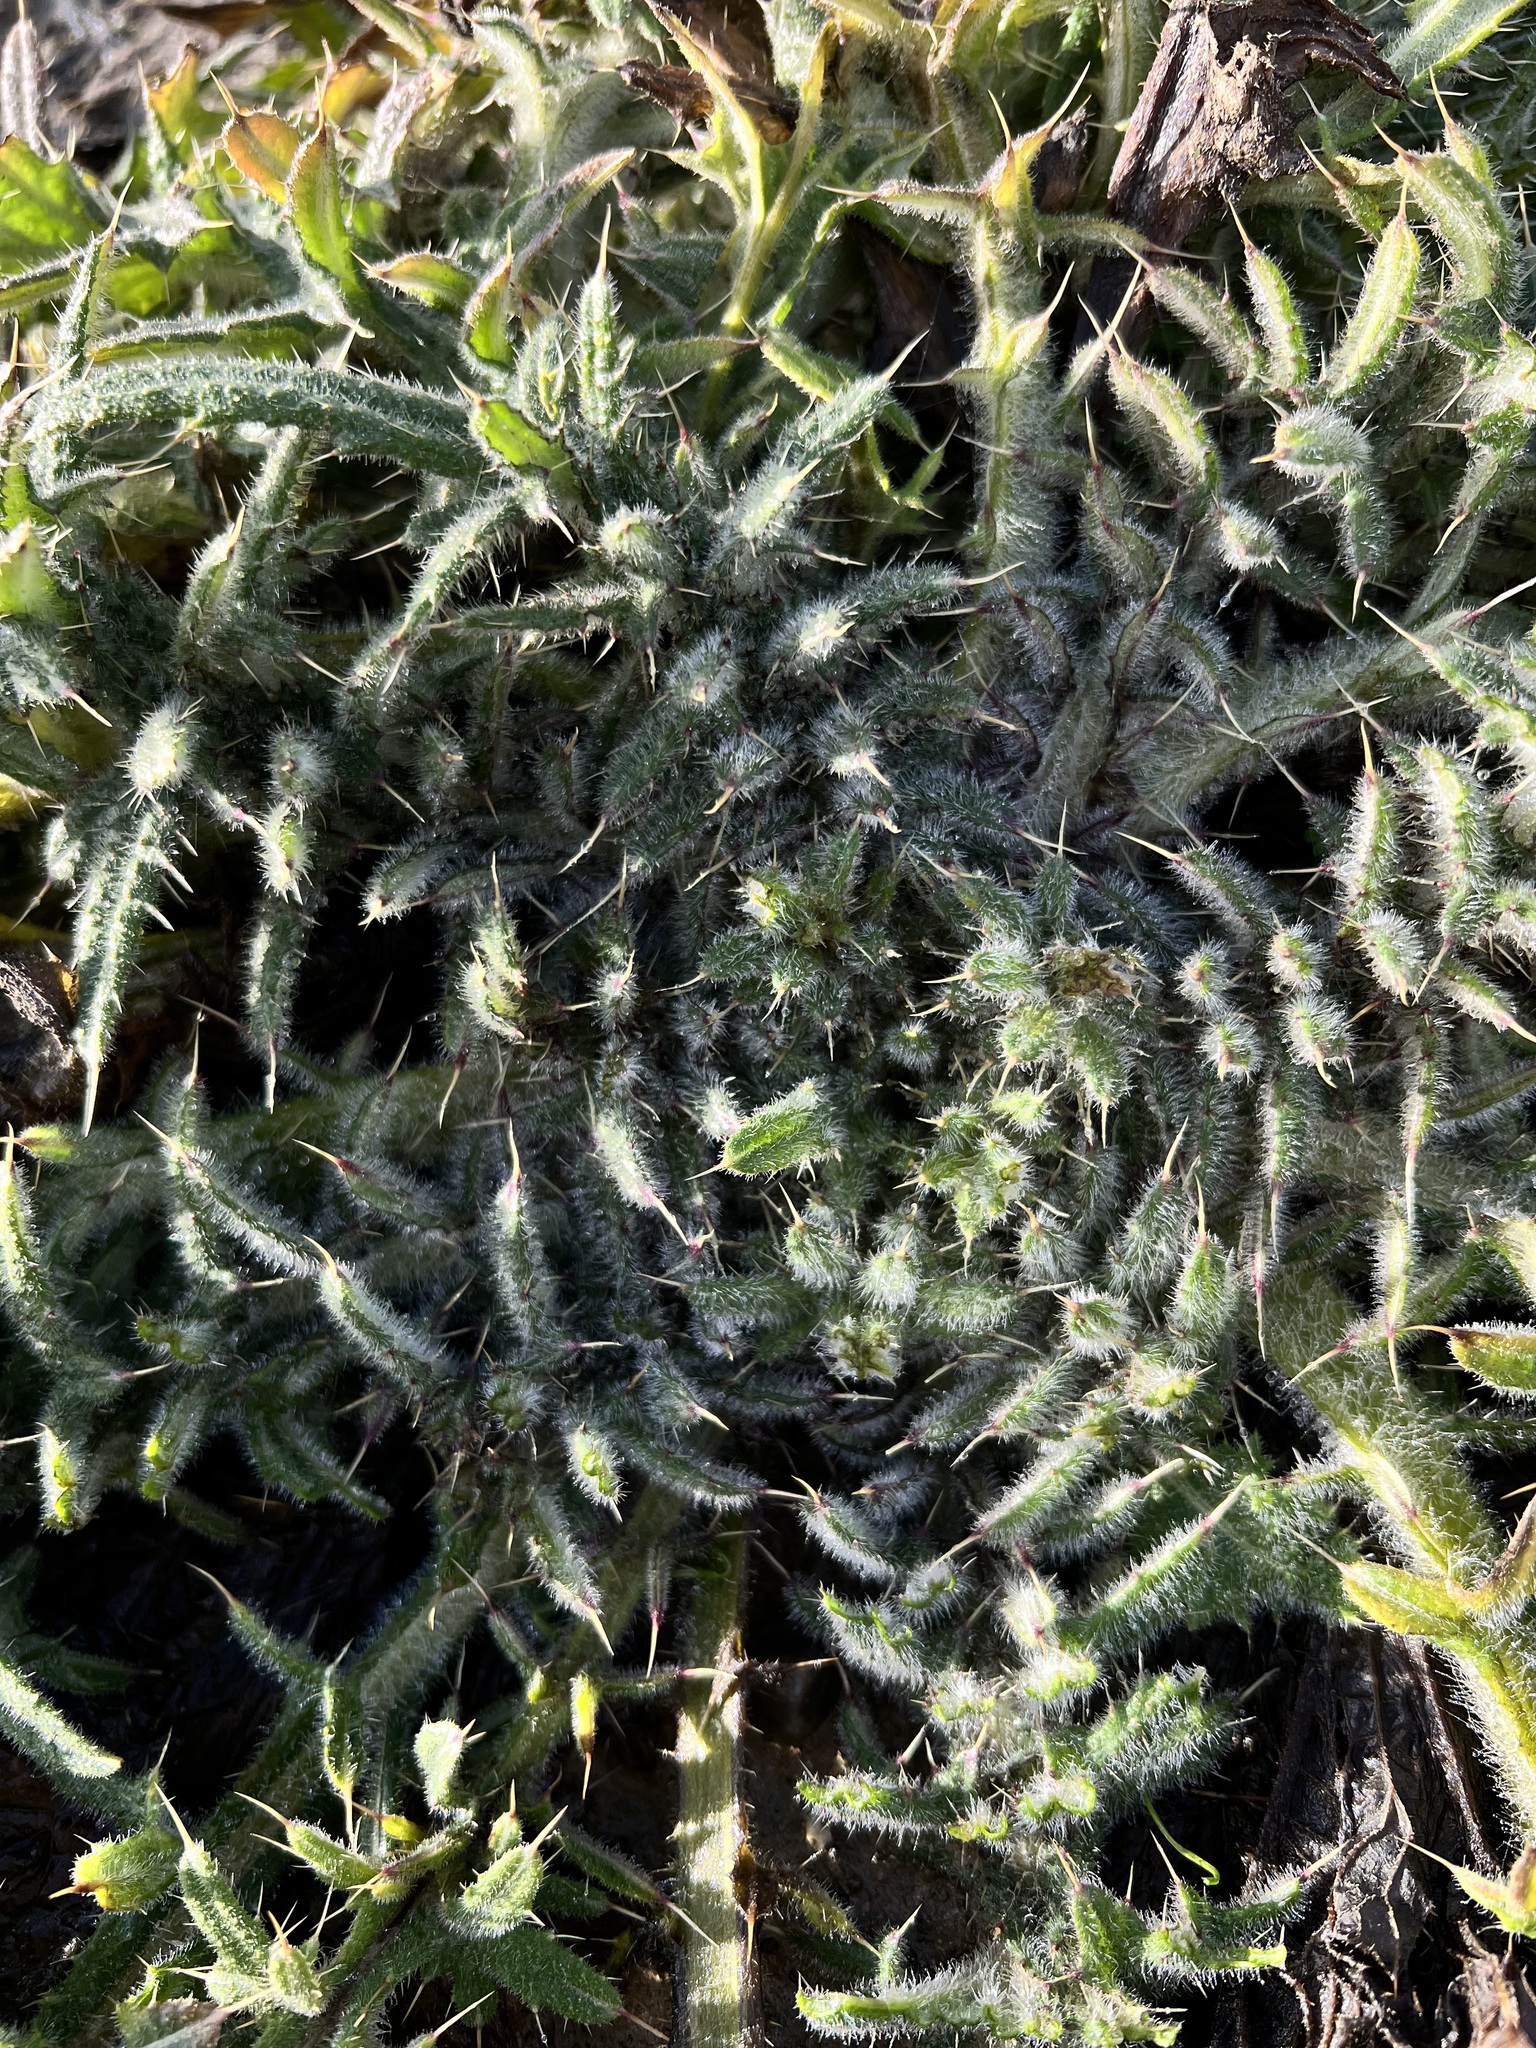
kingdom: Plantae
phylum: Tracheophyta
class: Magnoliopsida
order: Asterales
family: Asteraceae
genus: Cirsium
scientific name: Cirsium vulgare
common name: Bull thistle
